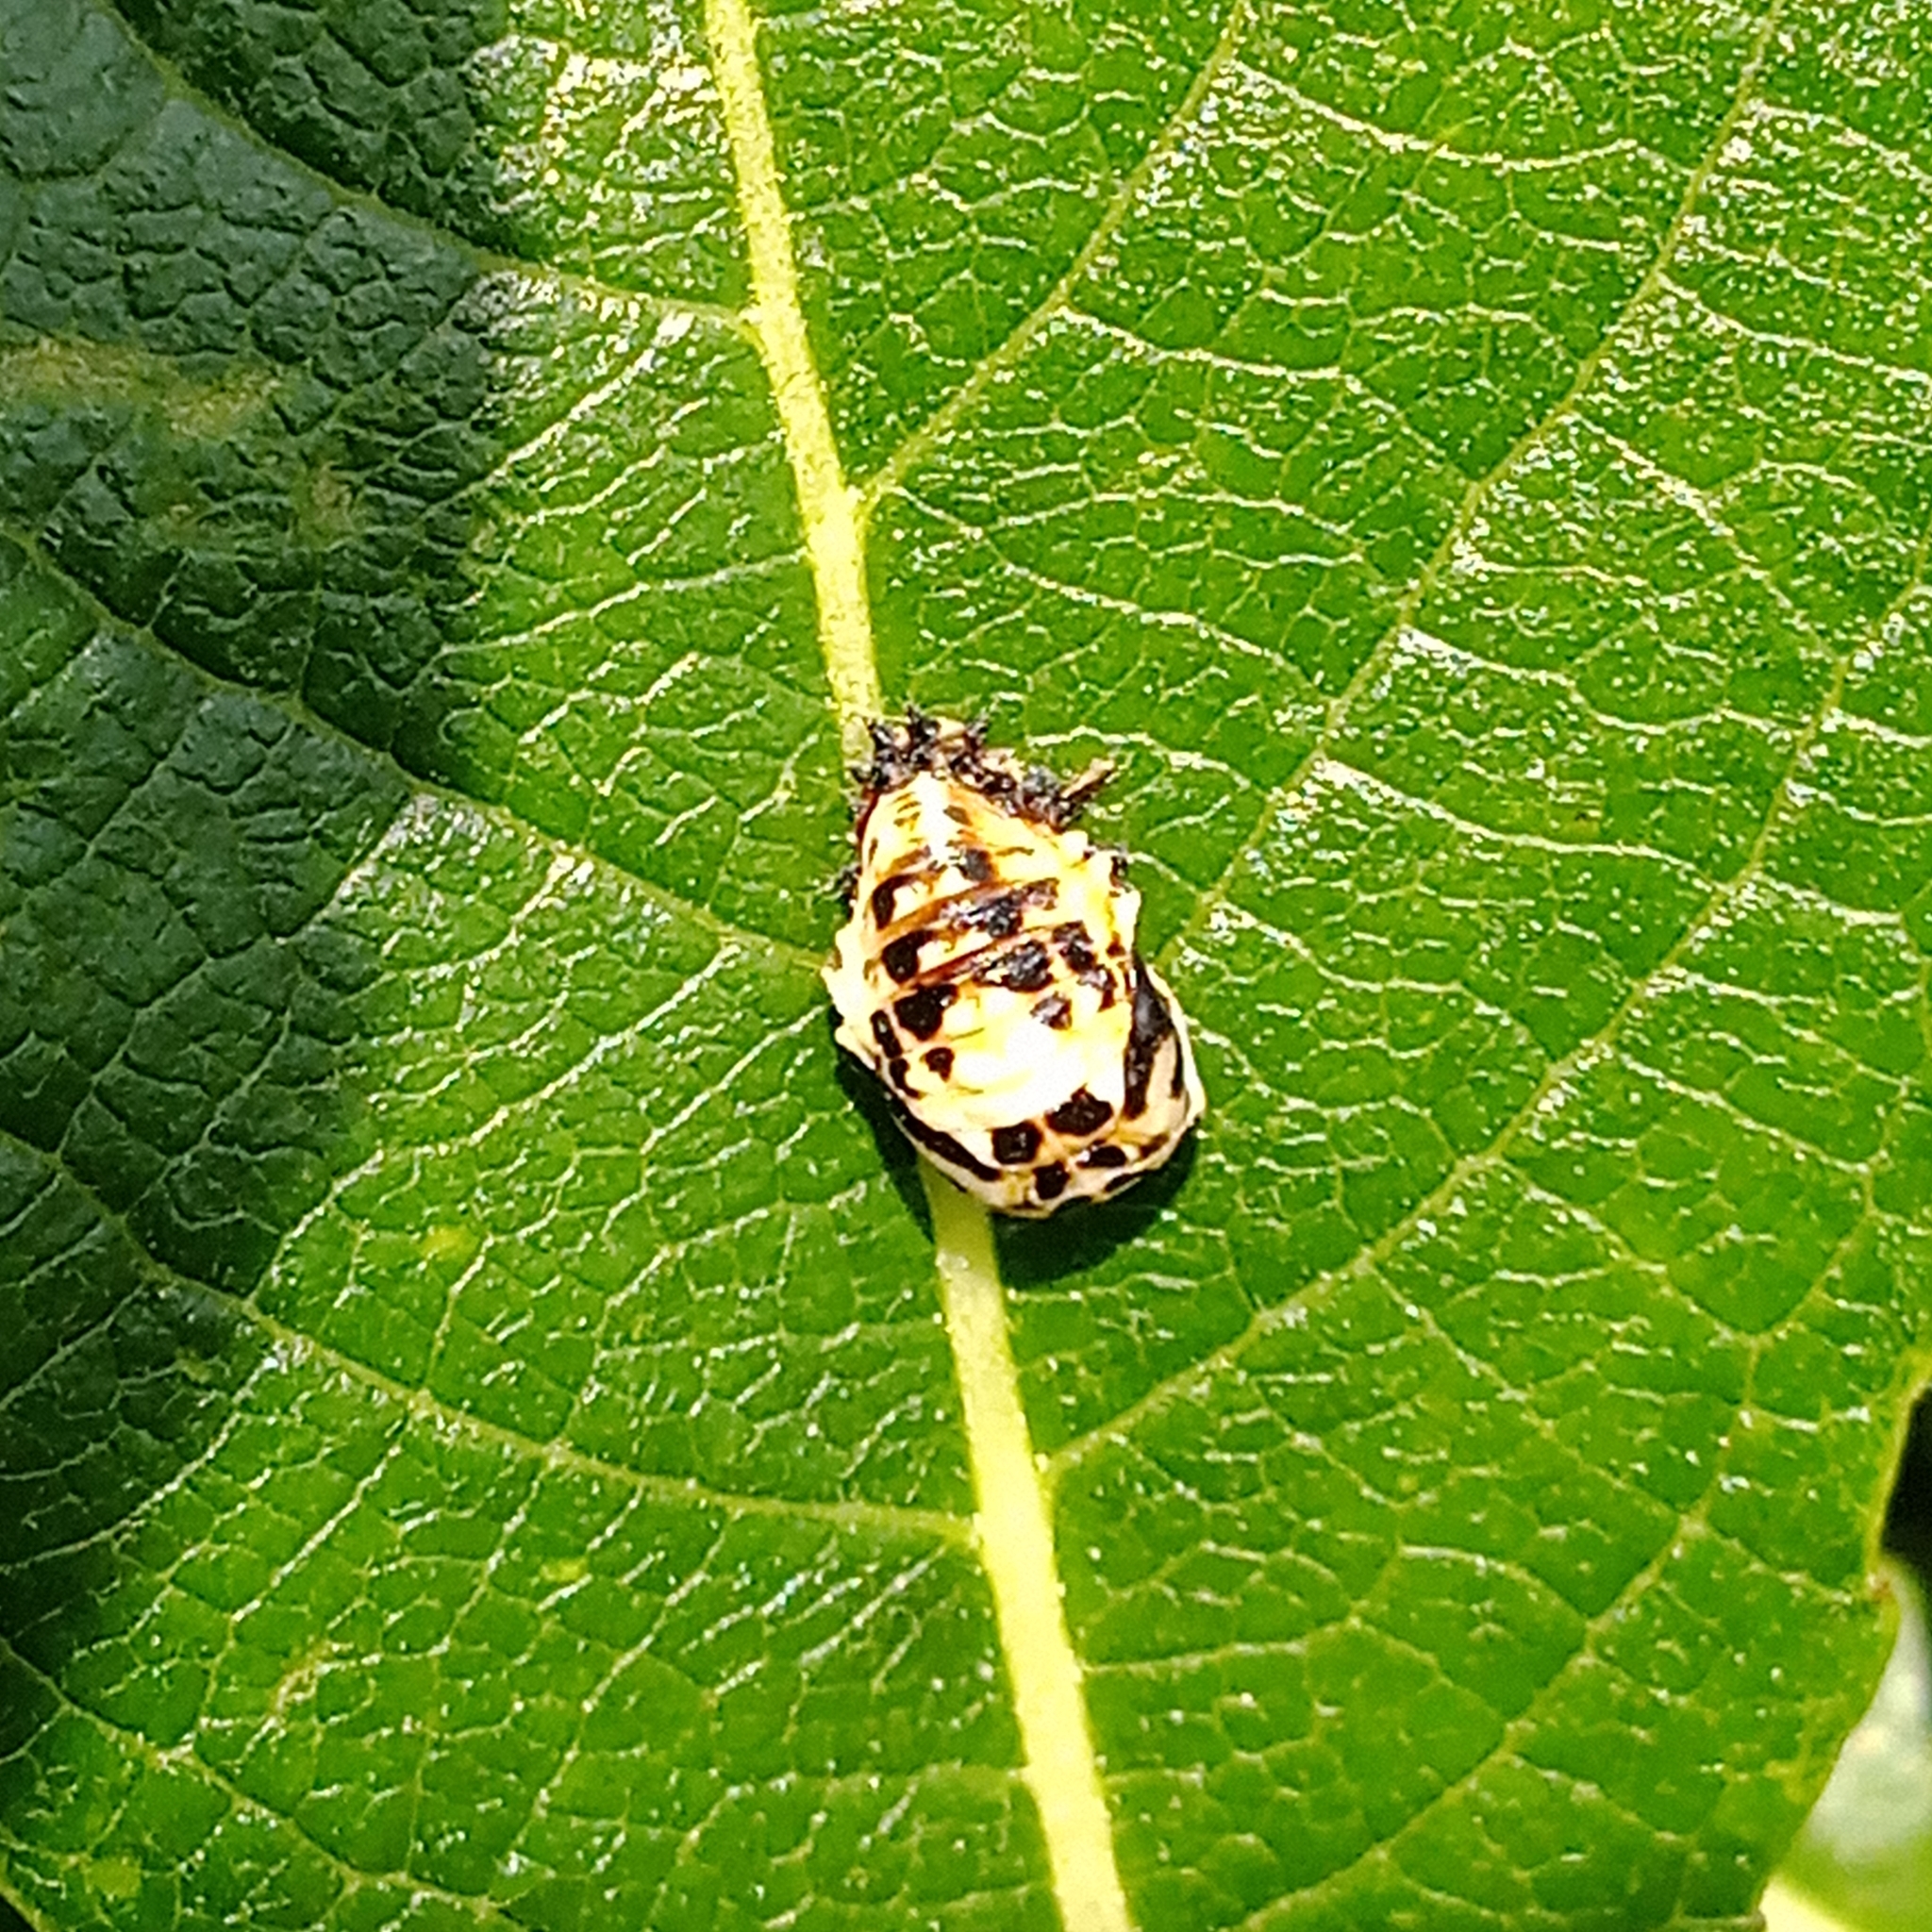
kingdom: Animalia
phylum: Arthropoda
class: Insecta
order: Coleoptera
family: Coccinellidae
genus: Harmonia
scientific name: Harmonia quadripunctata
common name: Cream-streaked ladybird
